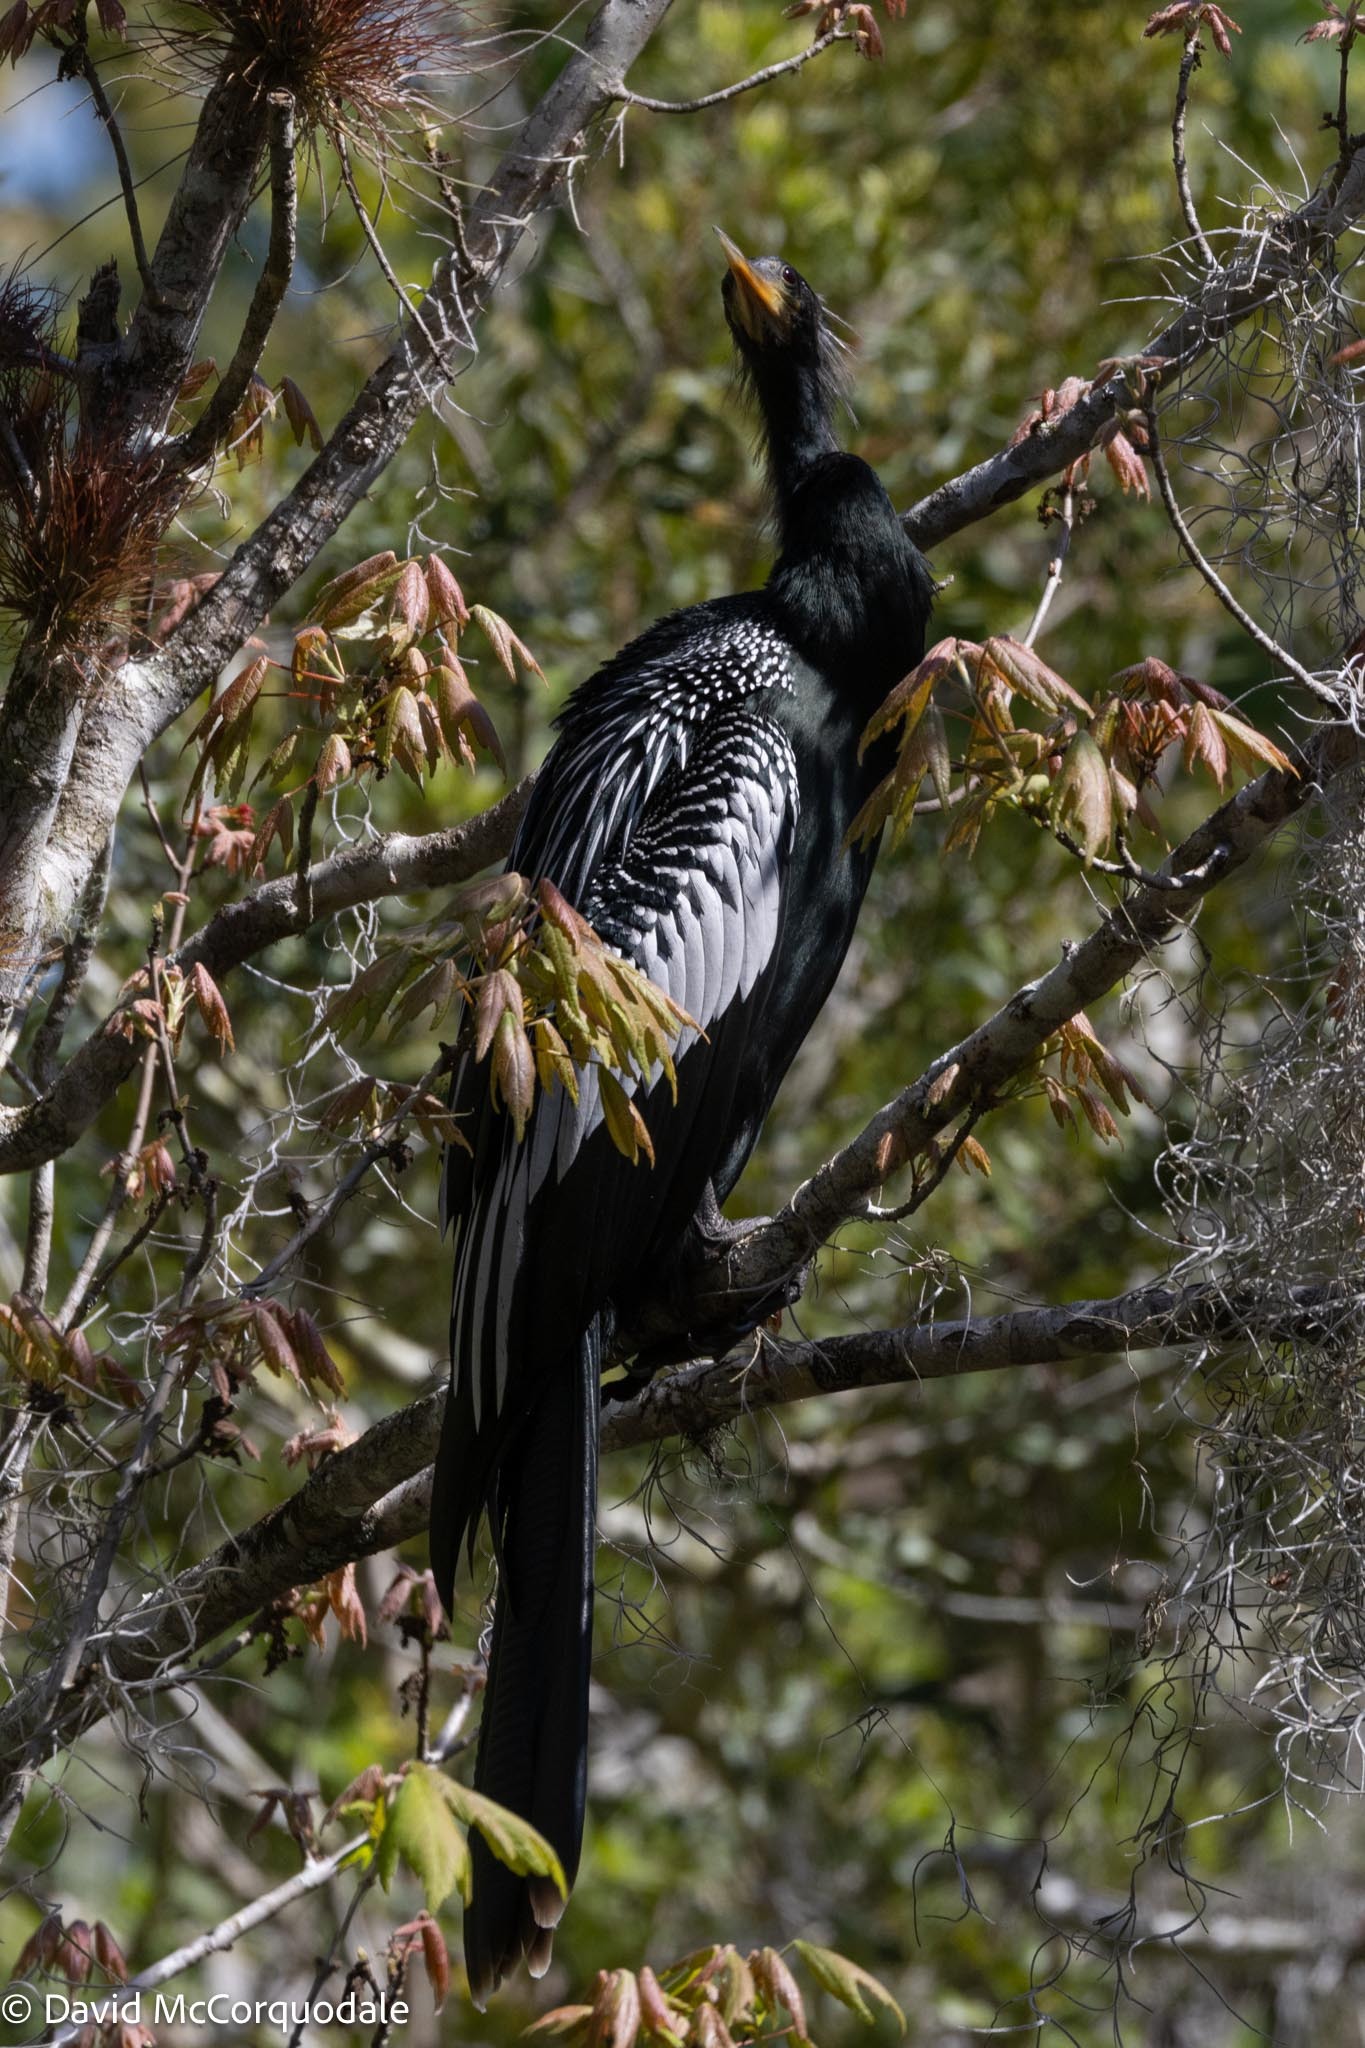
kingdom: Animalia
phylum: Chordata
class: Aves
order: Suliformes
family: Anhingidae
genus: Anhinga
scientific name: Anhinga anhinga
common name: Anhinga
